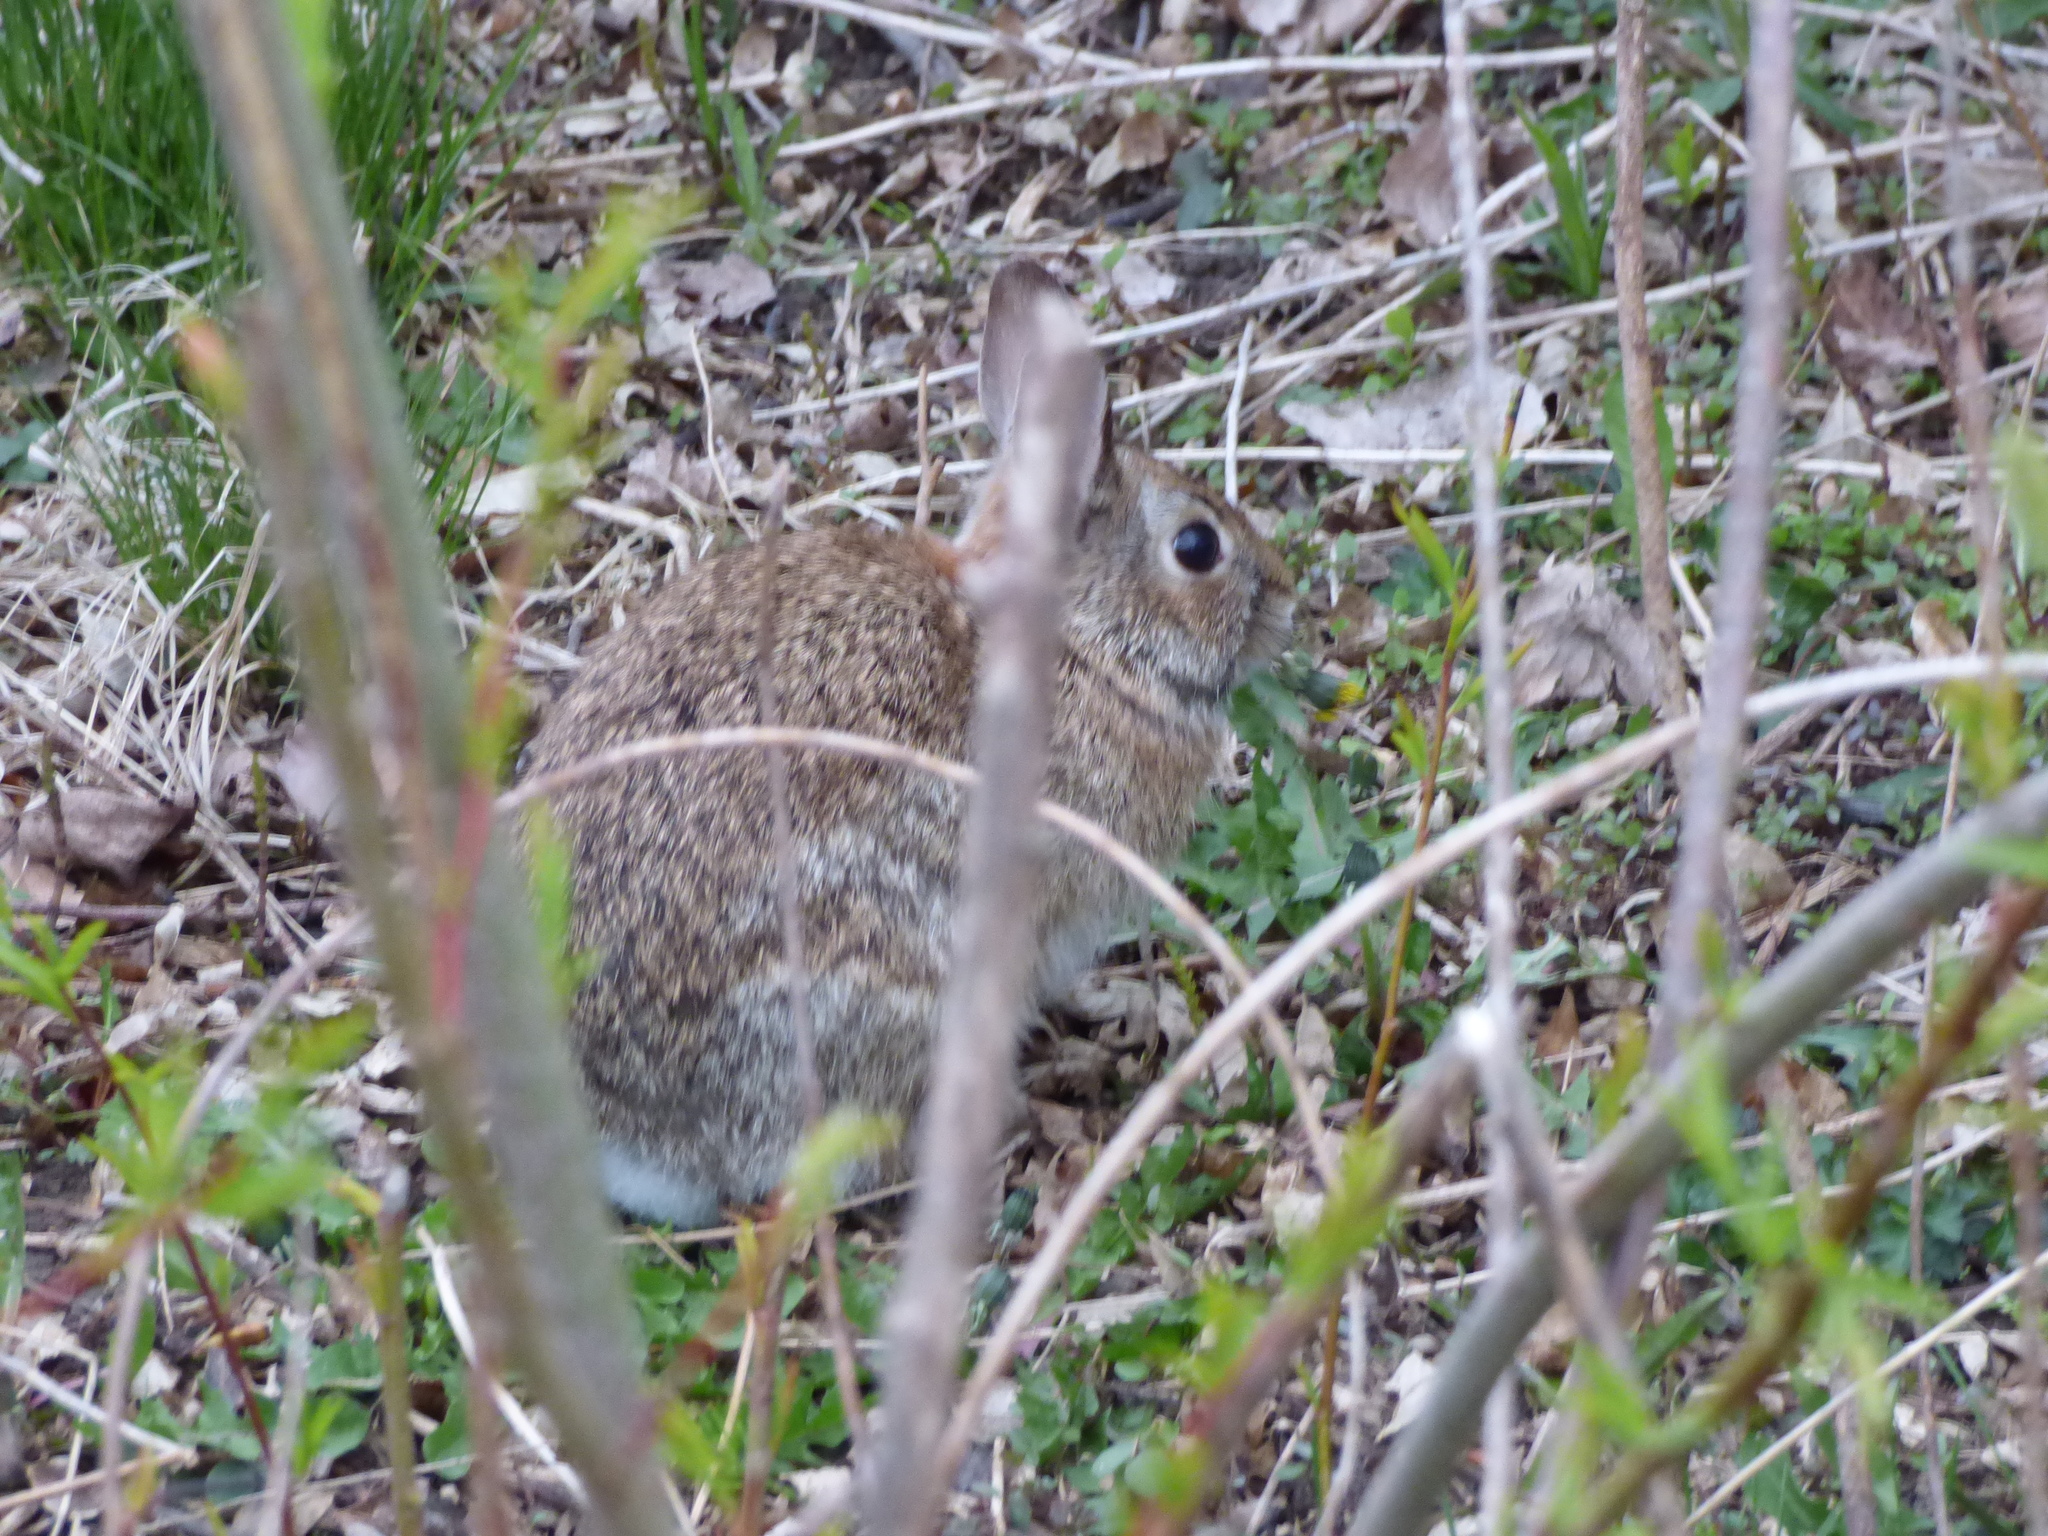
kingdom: Animalia
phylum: Chordata
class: Mammalia
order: Lagomorpha
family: Leporidae
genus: Sylvilagus
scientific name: Sylvilagus floridanus
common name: Eastern cottontail
